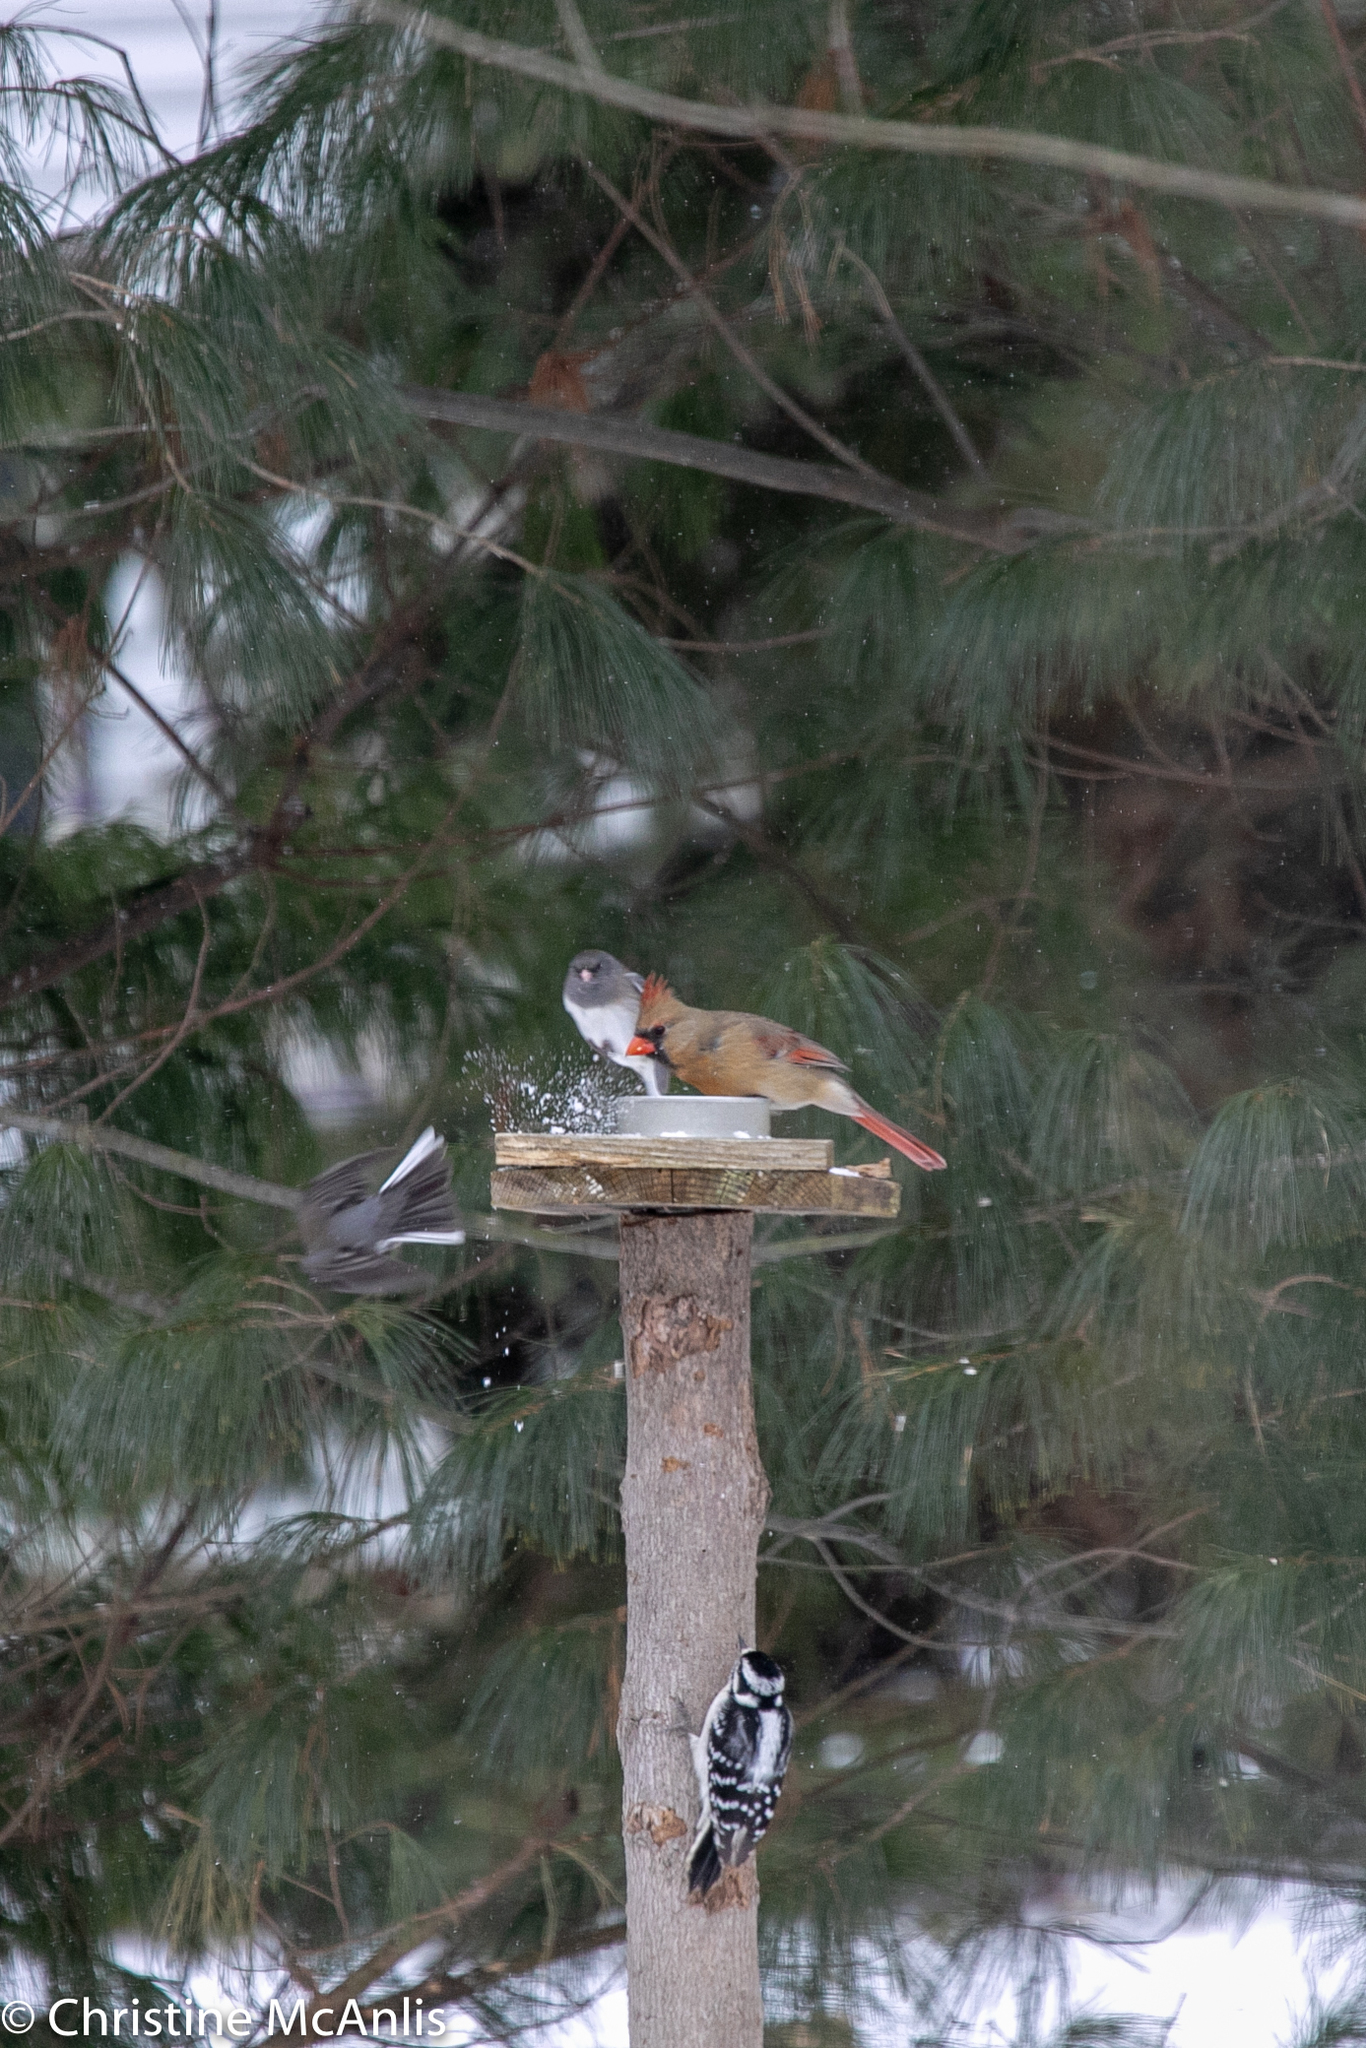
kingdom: Animalia
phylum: Chordata
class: Aves
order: Passeriformes
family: Cardinalidae
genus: Cardinalis
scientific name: Cardinalis cardinalis
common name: Northern cardinal
